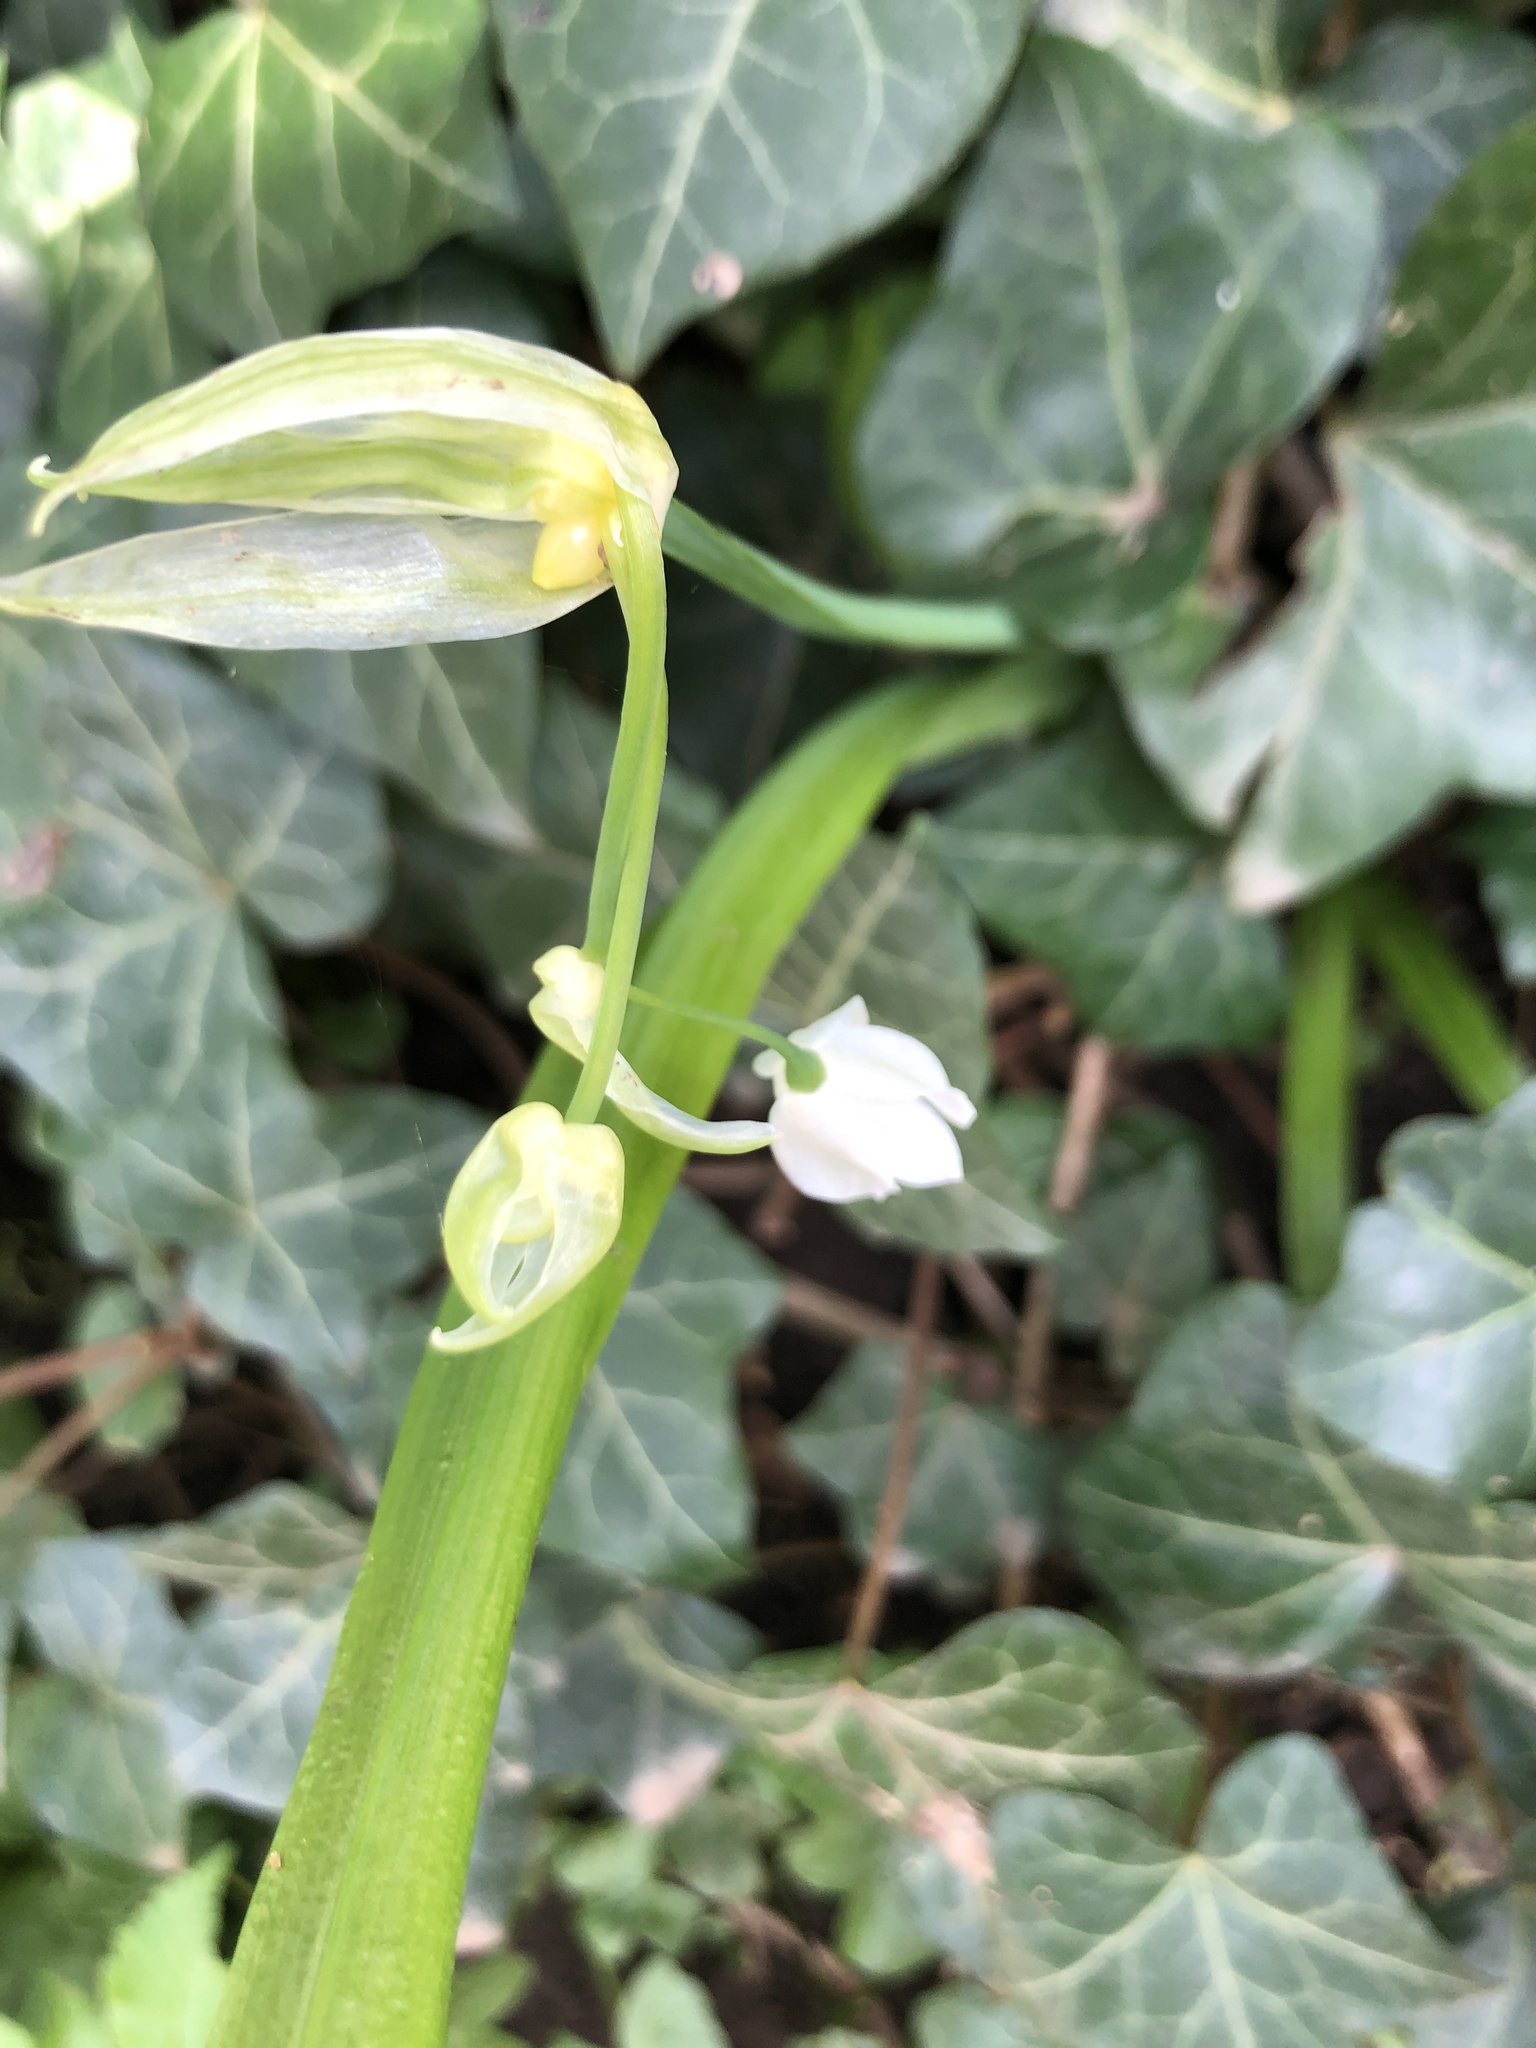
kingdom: Plantae
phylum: Tracheophyta
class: Liliopsida
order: Asparagales
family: Amaryllidaceae
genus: Allium
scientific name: Allium paradoxum
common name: Few-flowered garlic
